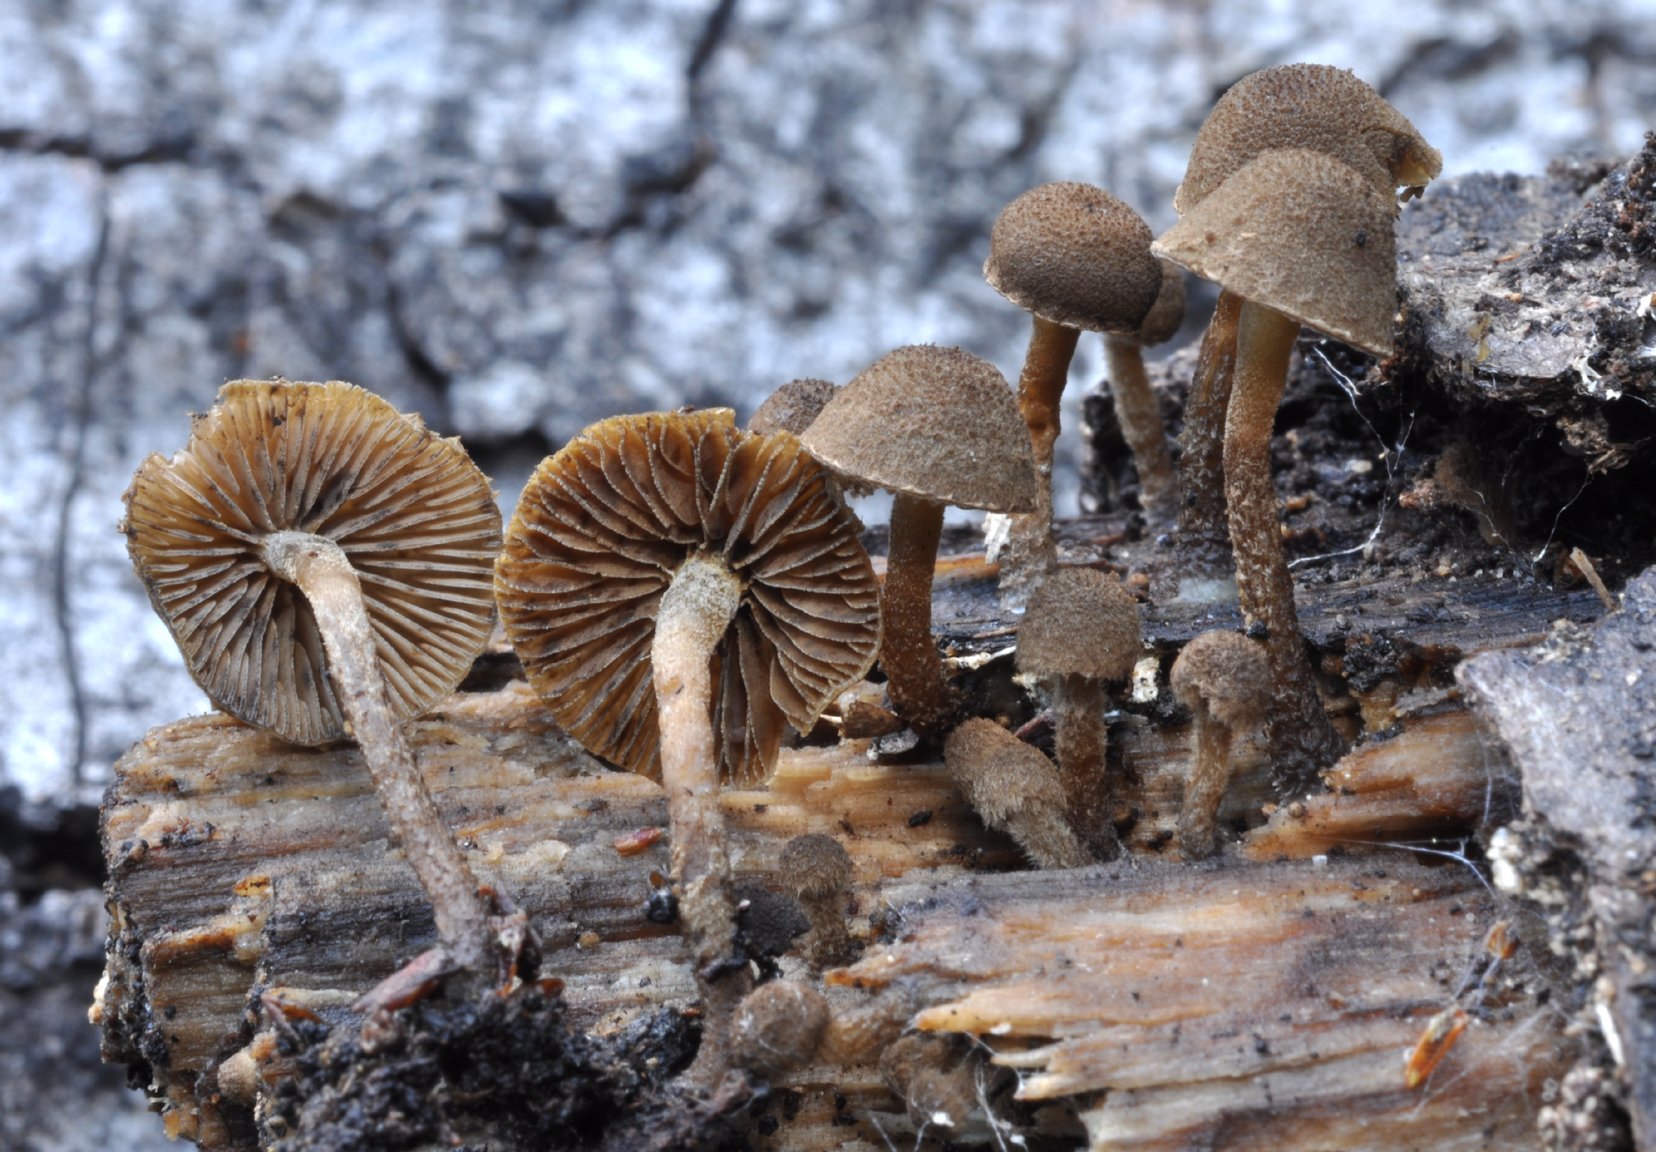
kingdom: Fungi
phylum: Basidiomycota
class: Agaricomycetes
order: Agaricales
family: Tubariaceae
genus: Flammulaster
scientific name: Flammulaster pulveraceus
